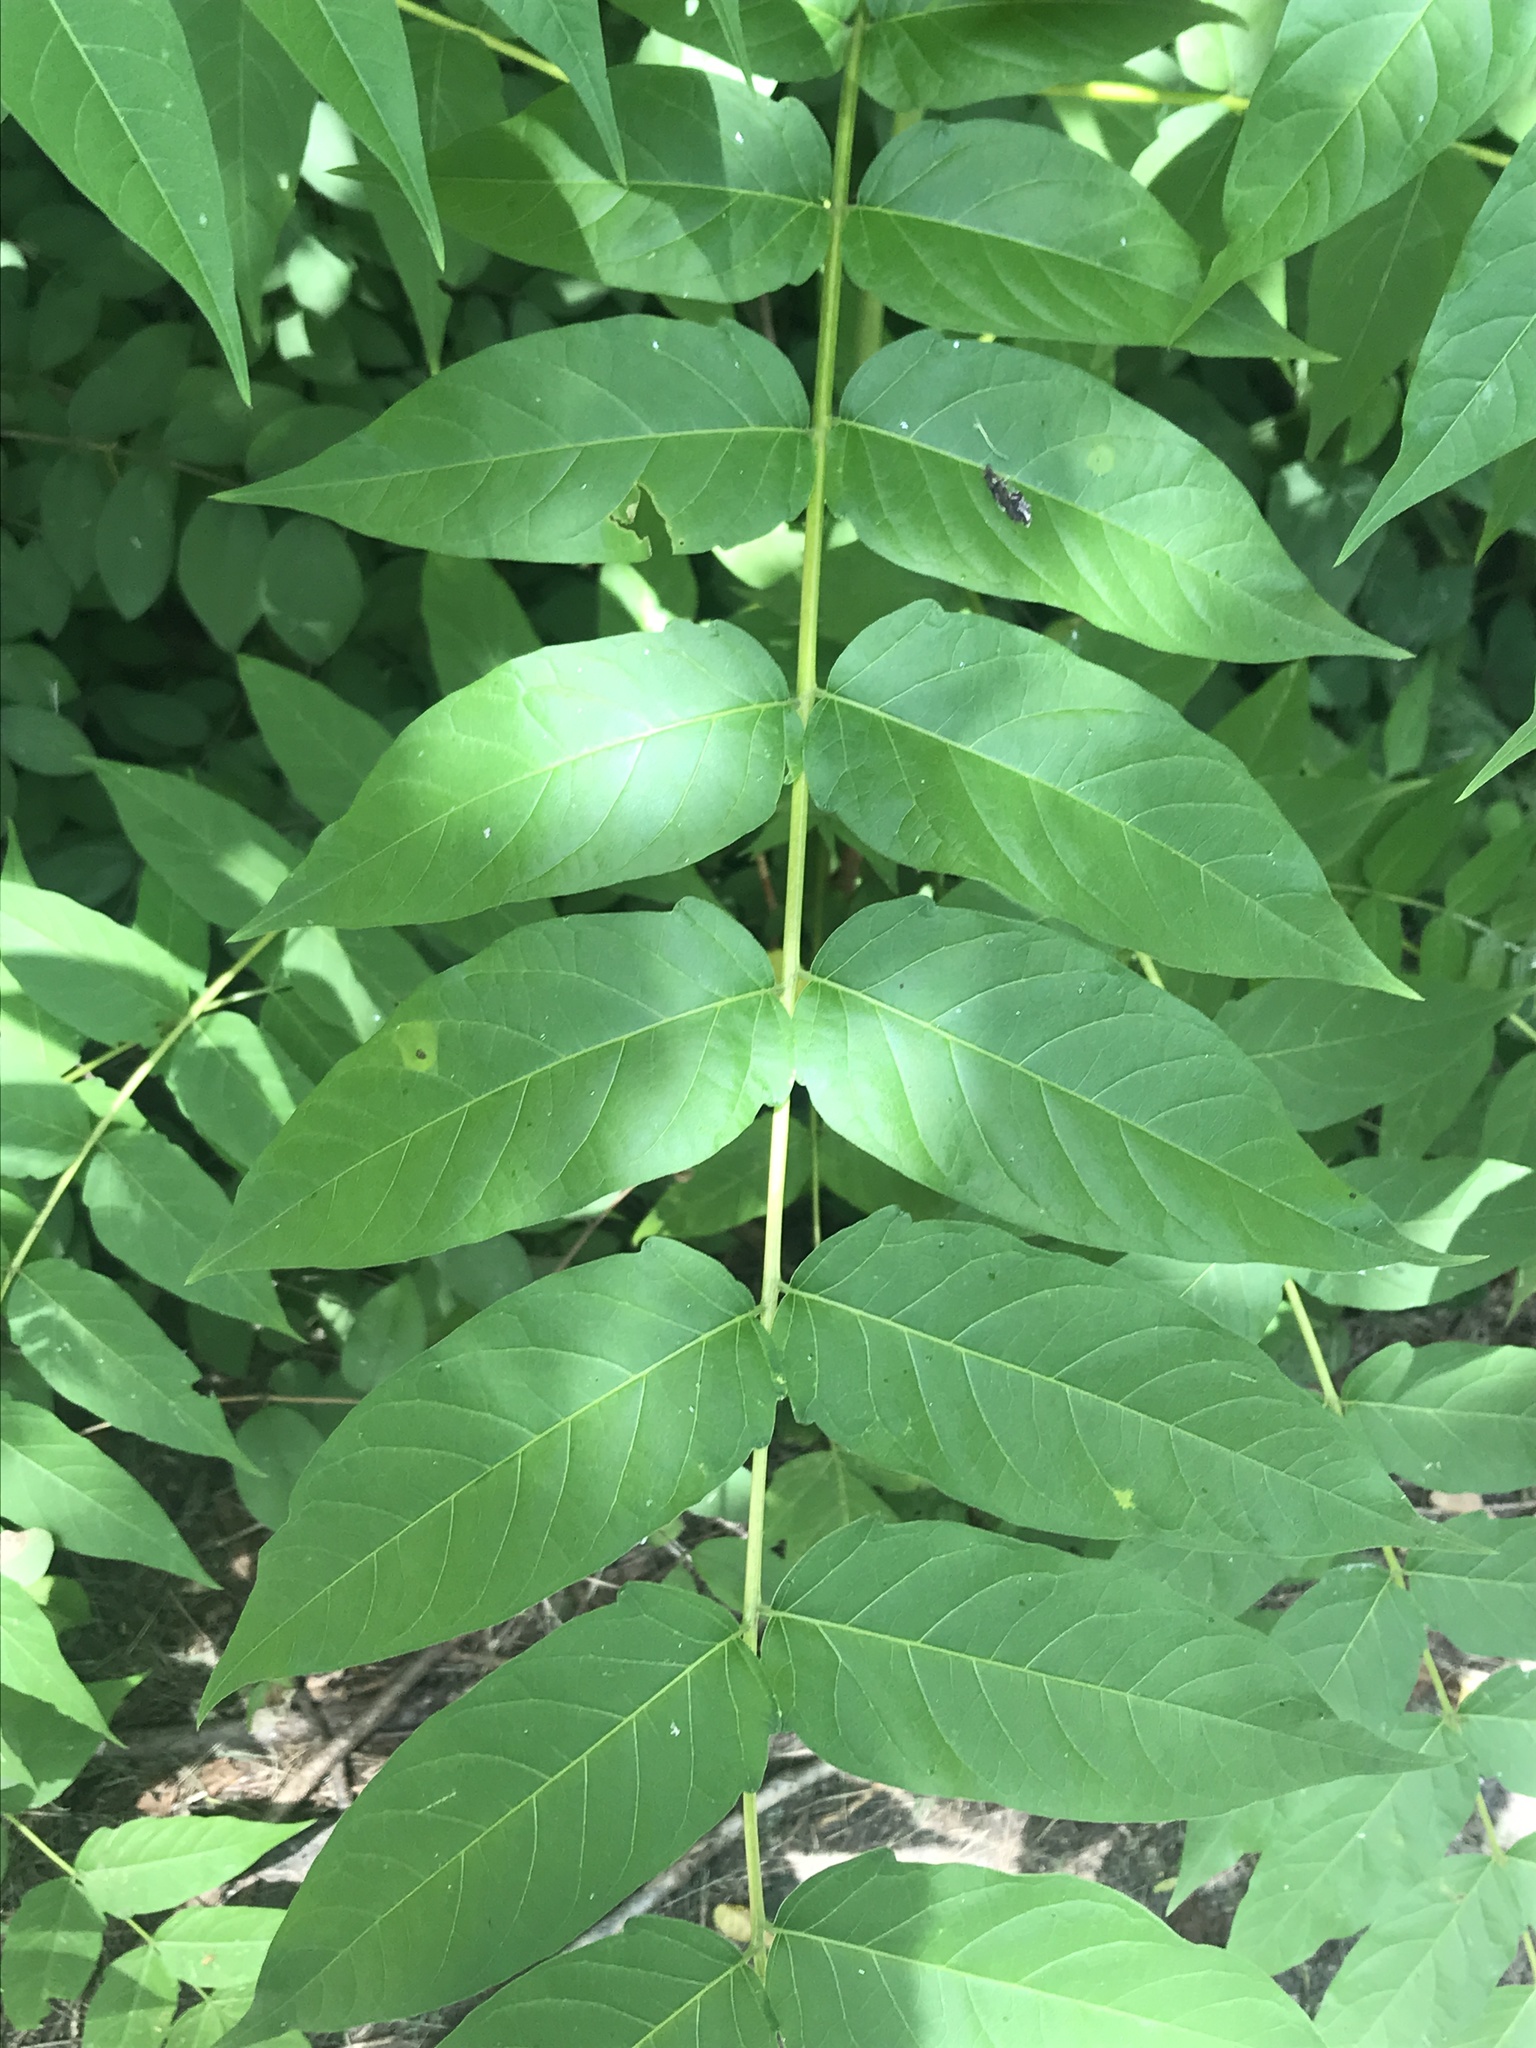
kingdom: Plantae
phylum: Tracheophyta
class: Magnoliopsida
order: Sapindales
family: Simaroubaceae
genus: Ailanthus
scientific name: Ailanthus altissima
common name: Tree-of-heaven
